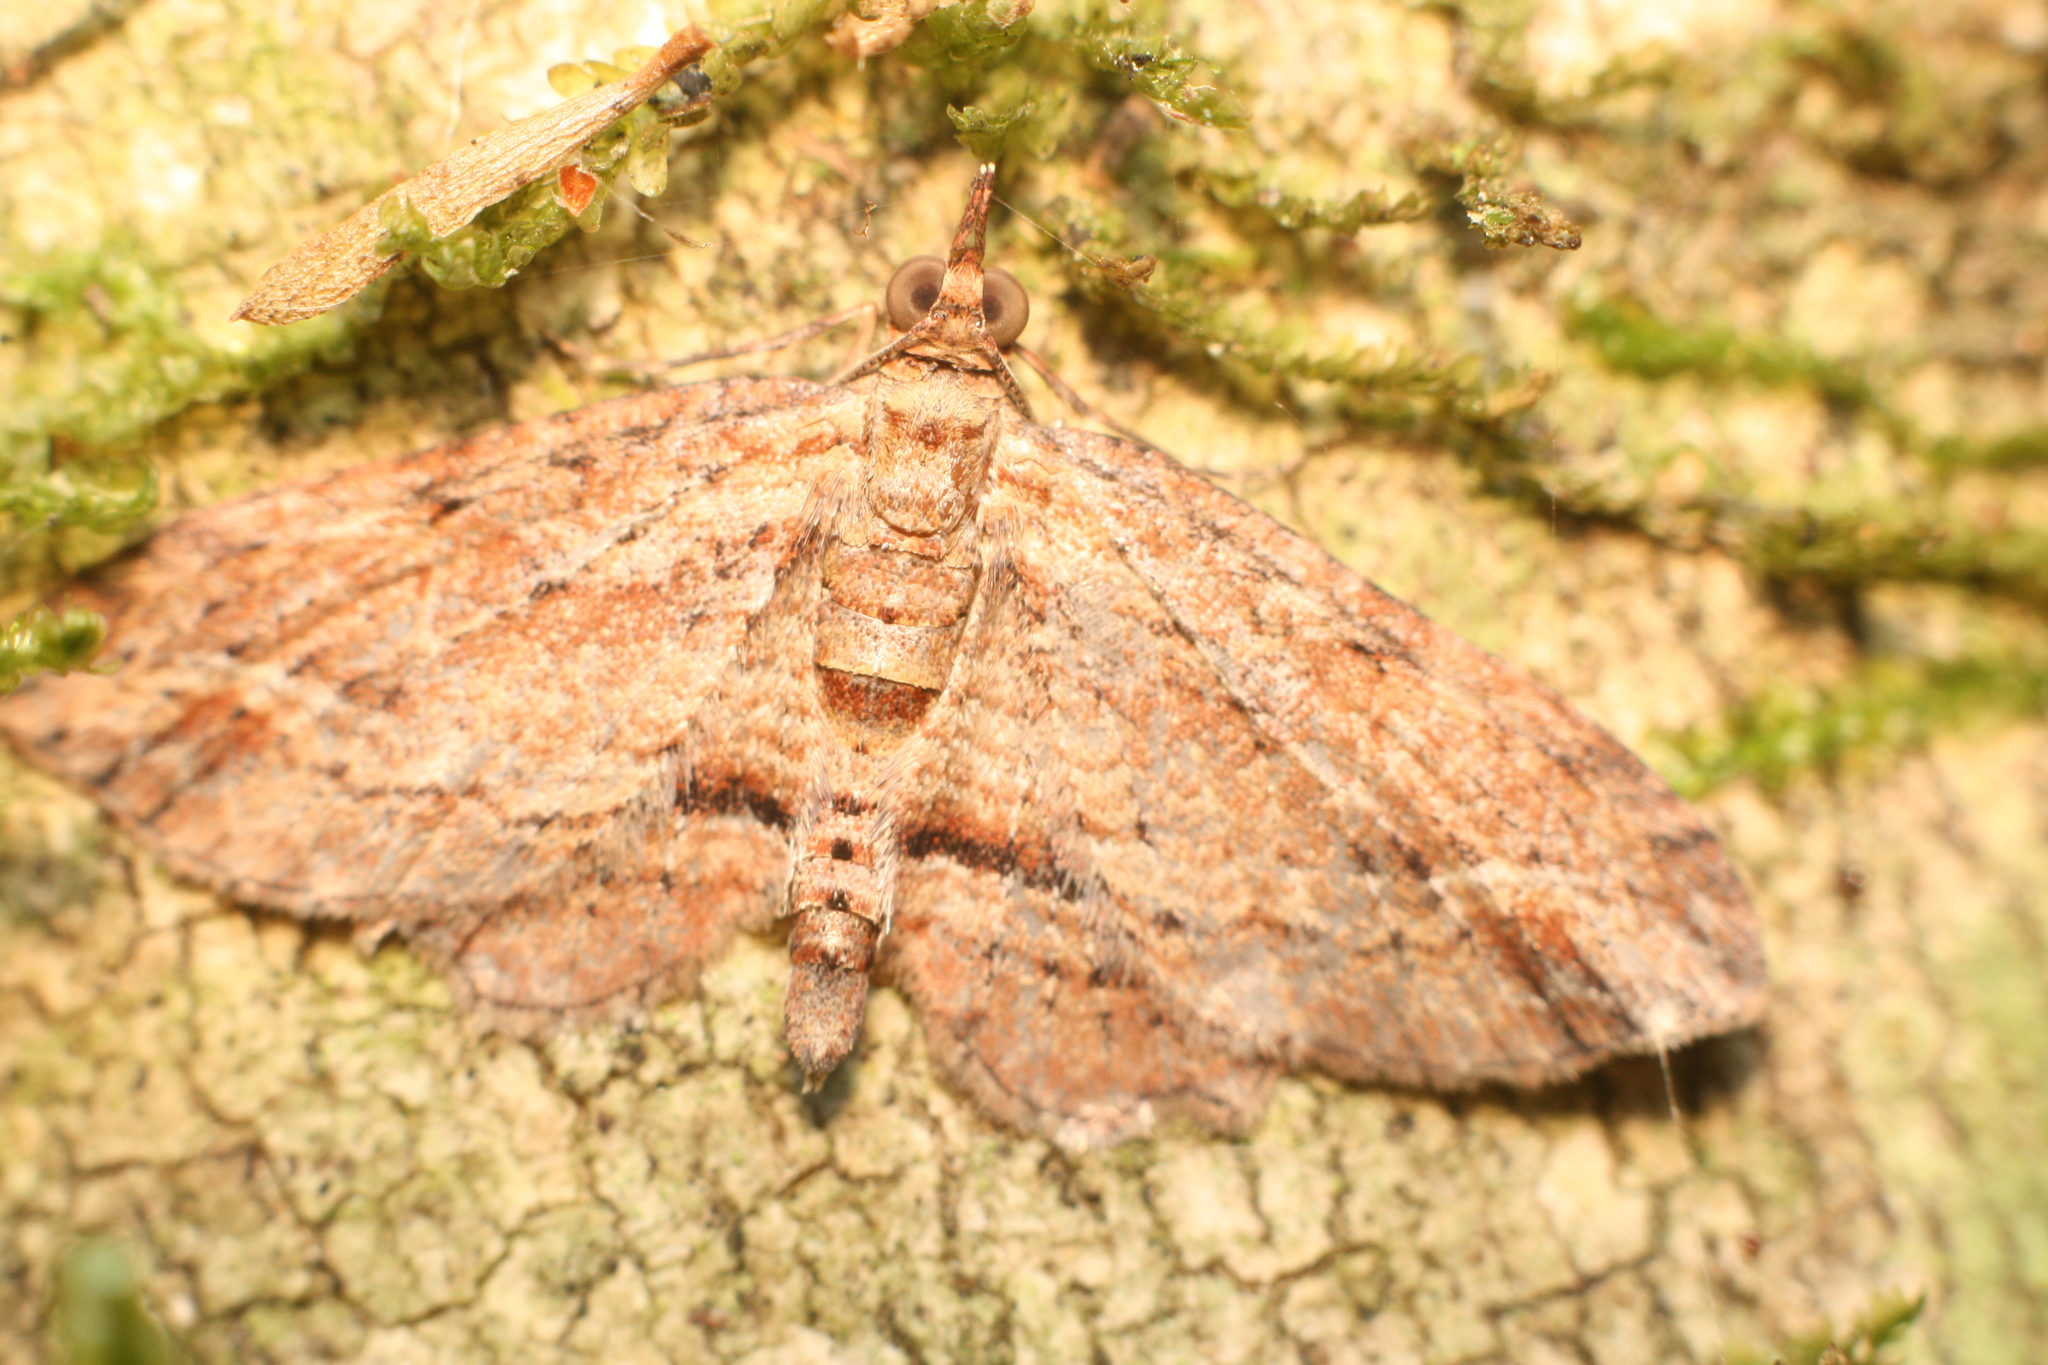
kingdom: Animalia
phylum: Arthropoda
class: Insecta
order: Lepidoptera
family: Geometridae
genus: Chloroclystis
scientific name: Chloroclystis filata
